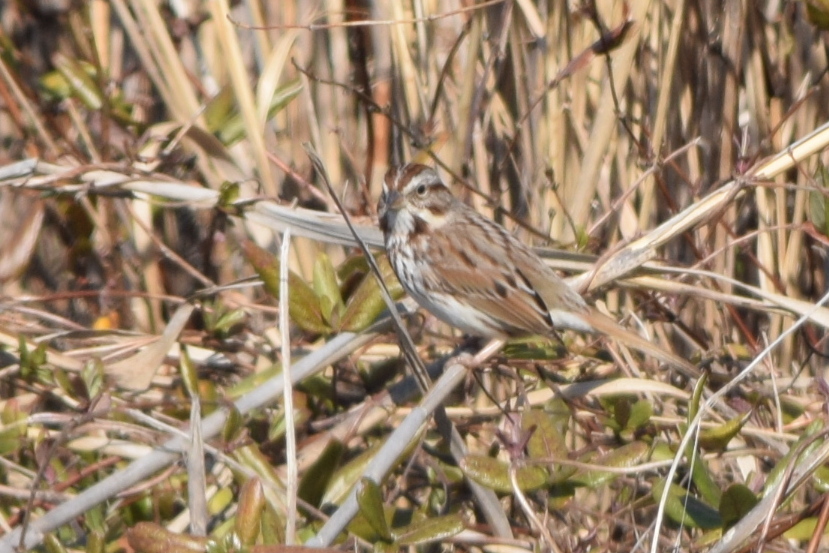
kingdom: Animalia
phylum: Chordata
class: Aves
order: Passeriformes
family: Passerellidae
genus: Melospiza
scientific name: Melospiza melodia
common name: Song sparrow
